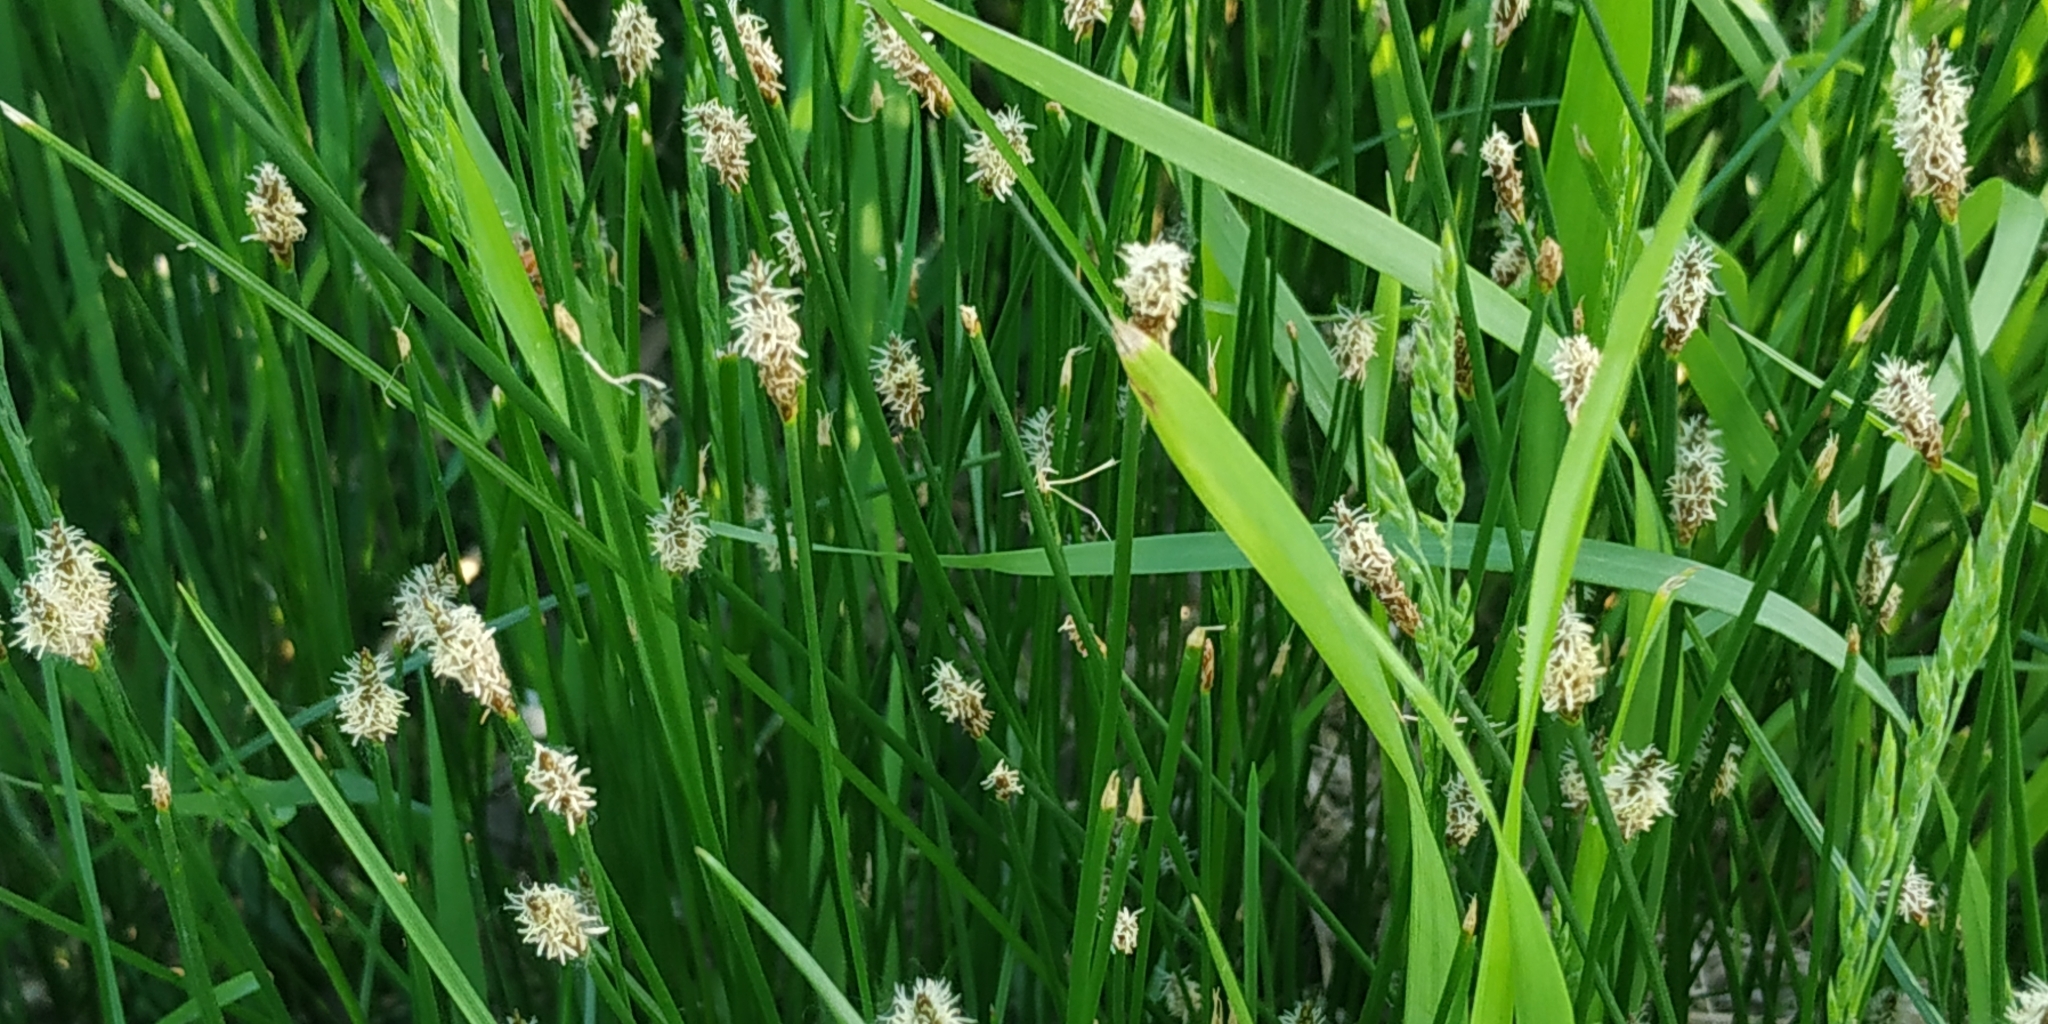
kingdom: Plantae
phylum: Tracheophyta
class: Liliopsida
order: Poales
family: Cyperaceae
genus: Eleocharis
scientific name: Eleocharis palustris
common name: Common spike-rush
